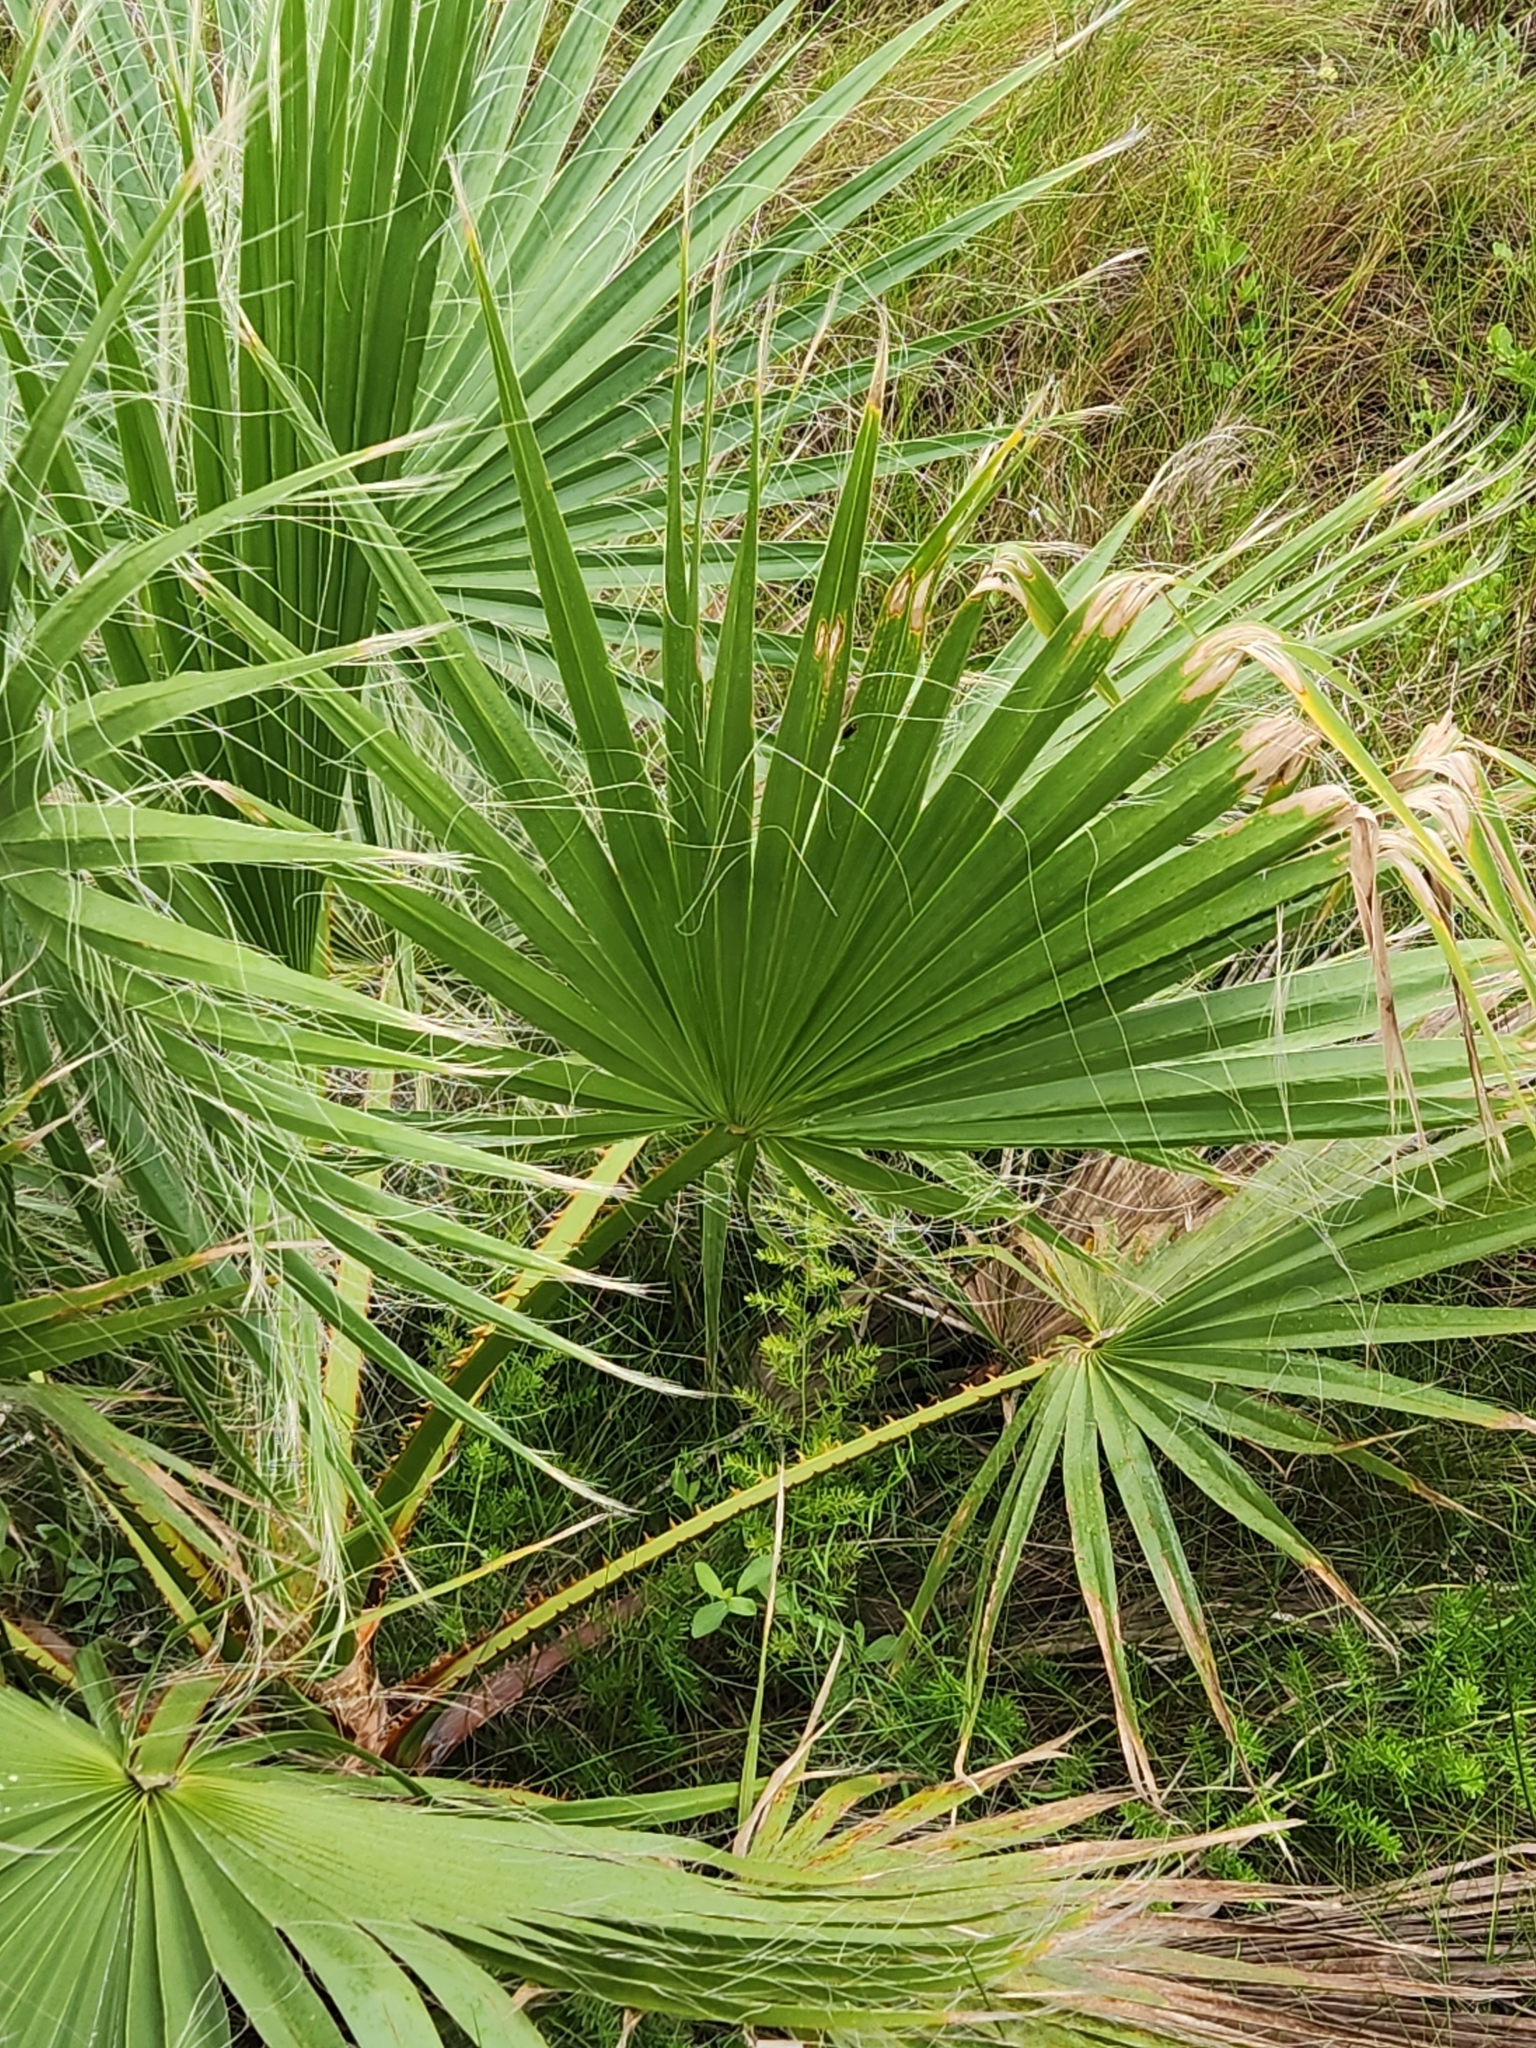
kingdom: Plantae
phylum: Tracheophyta
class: Liliopsida
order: Arecales
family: Arecaceae
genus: Washingtonia
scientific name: Washingtonia robusta
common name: Mexican fan palm
